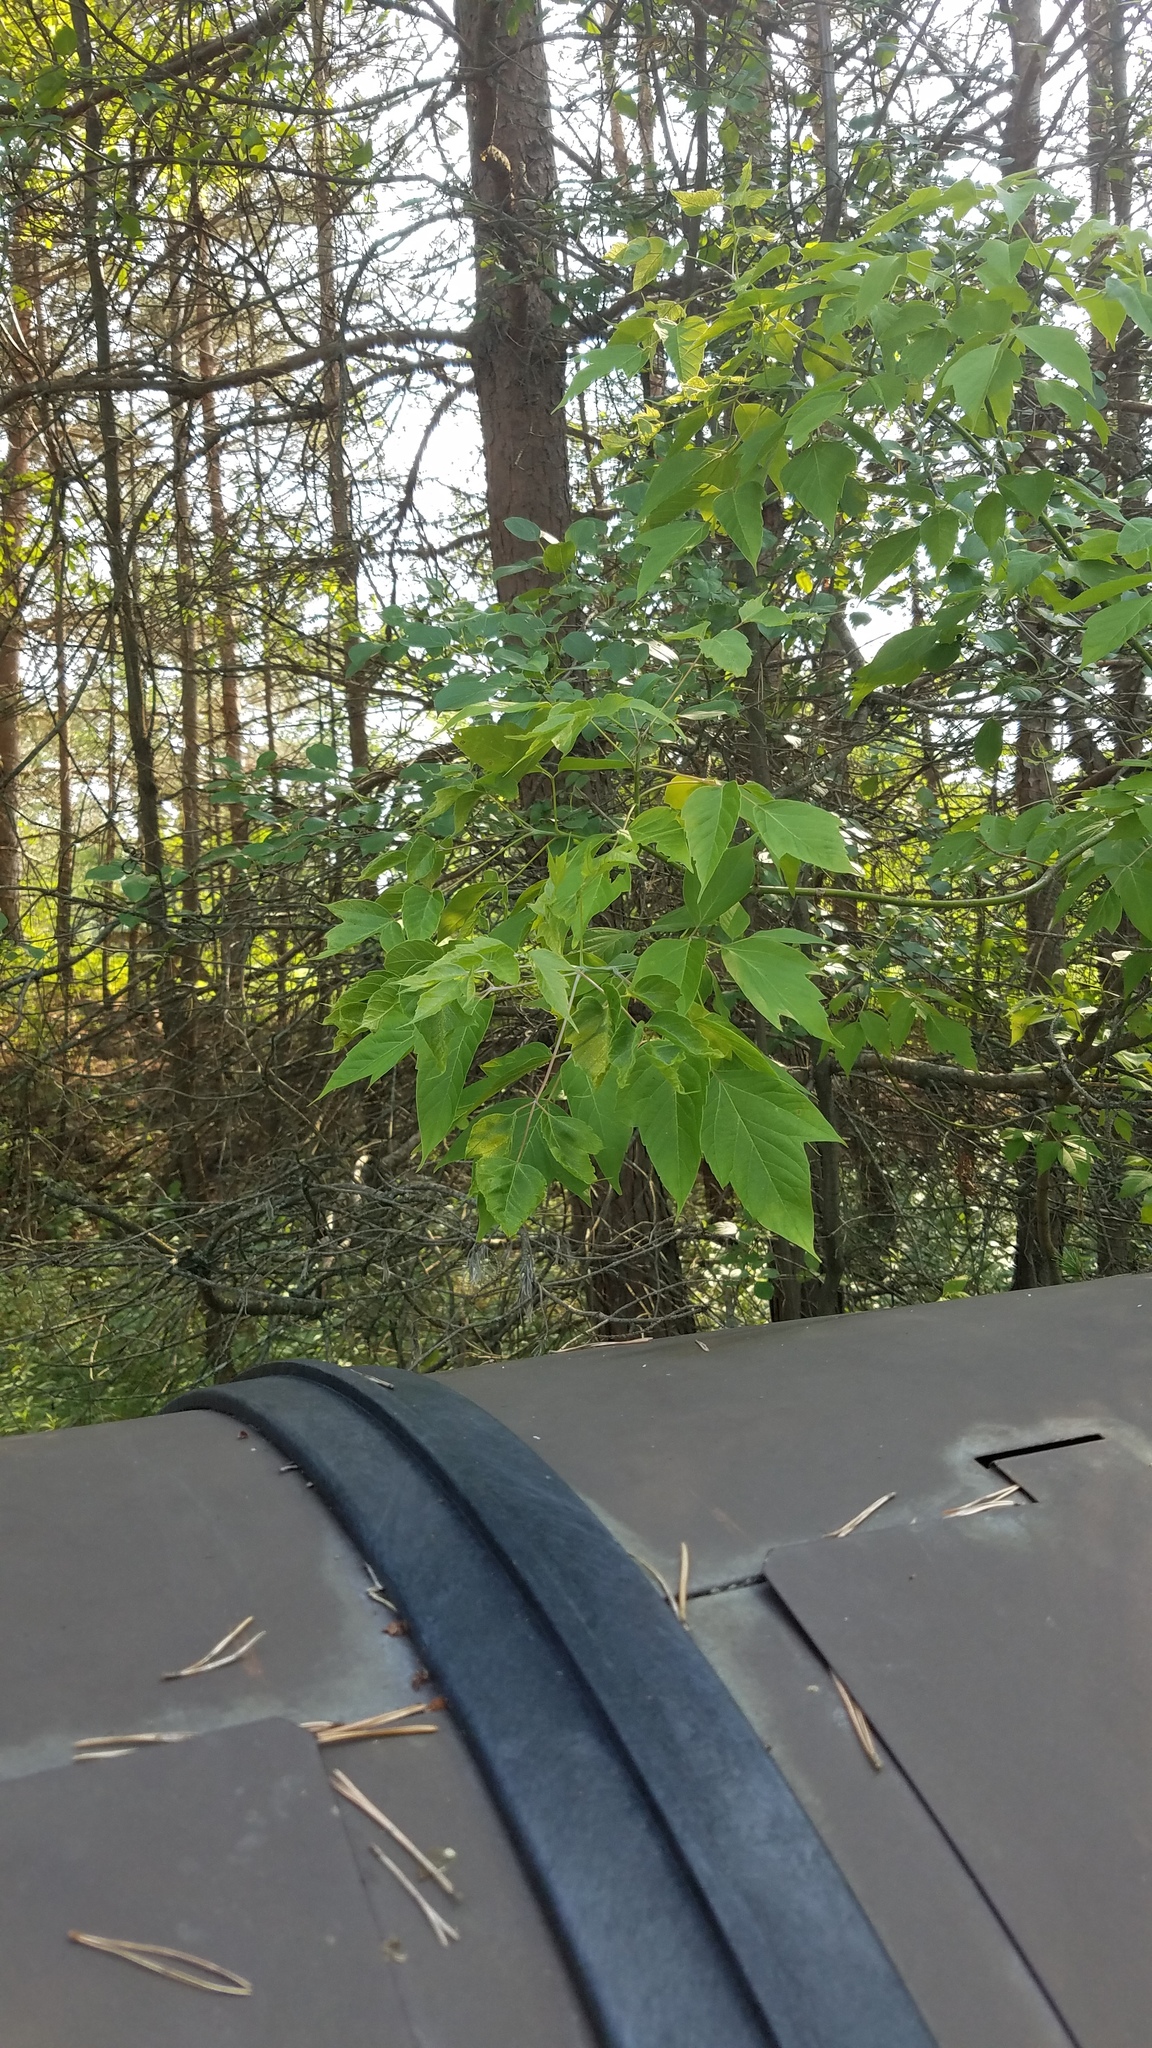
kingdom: Plantae
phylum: Tracheophyta
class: Magnoliopsida
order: Sapindales
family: Sapindaceae
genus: Acer
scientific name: Acer negundo
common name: Ashleaf maple
